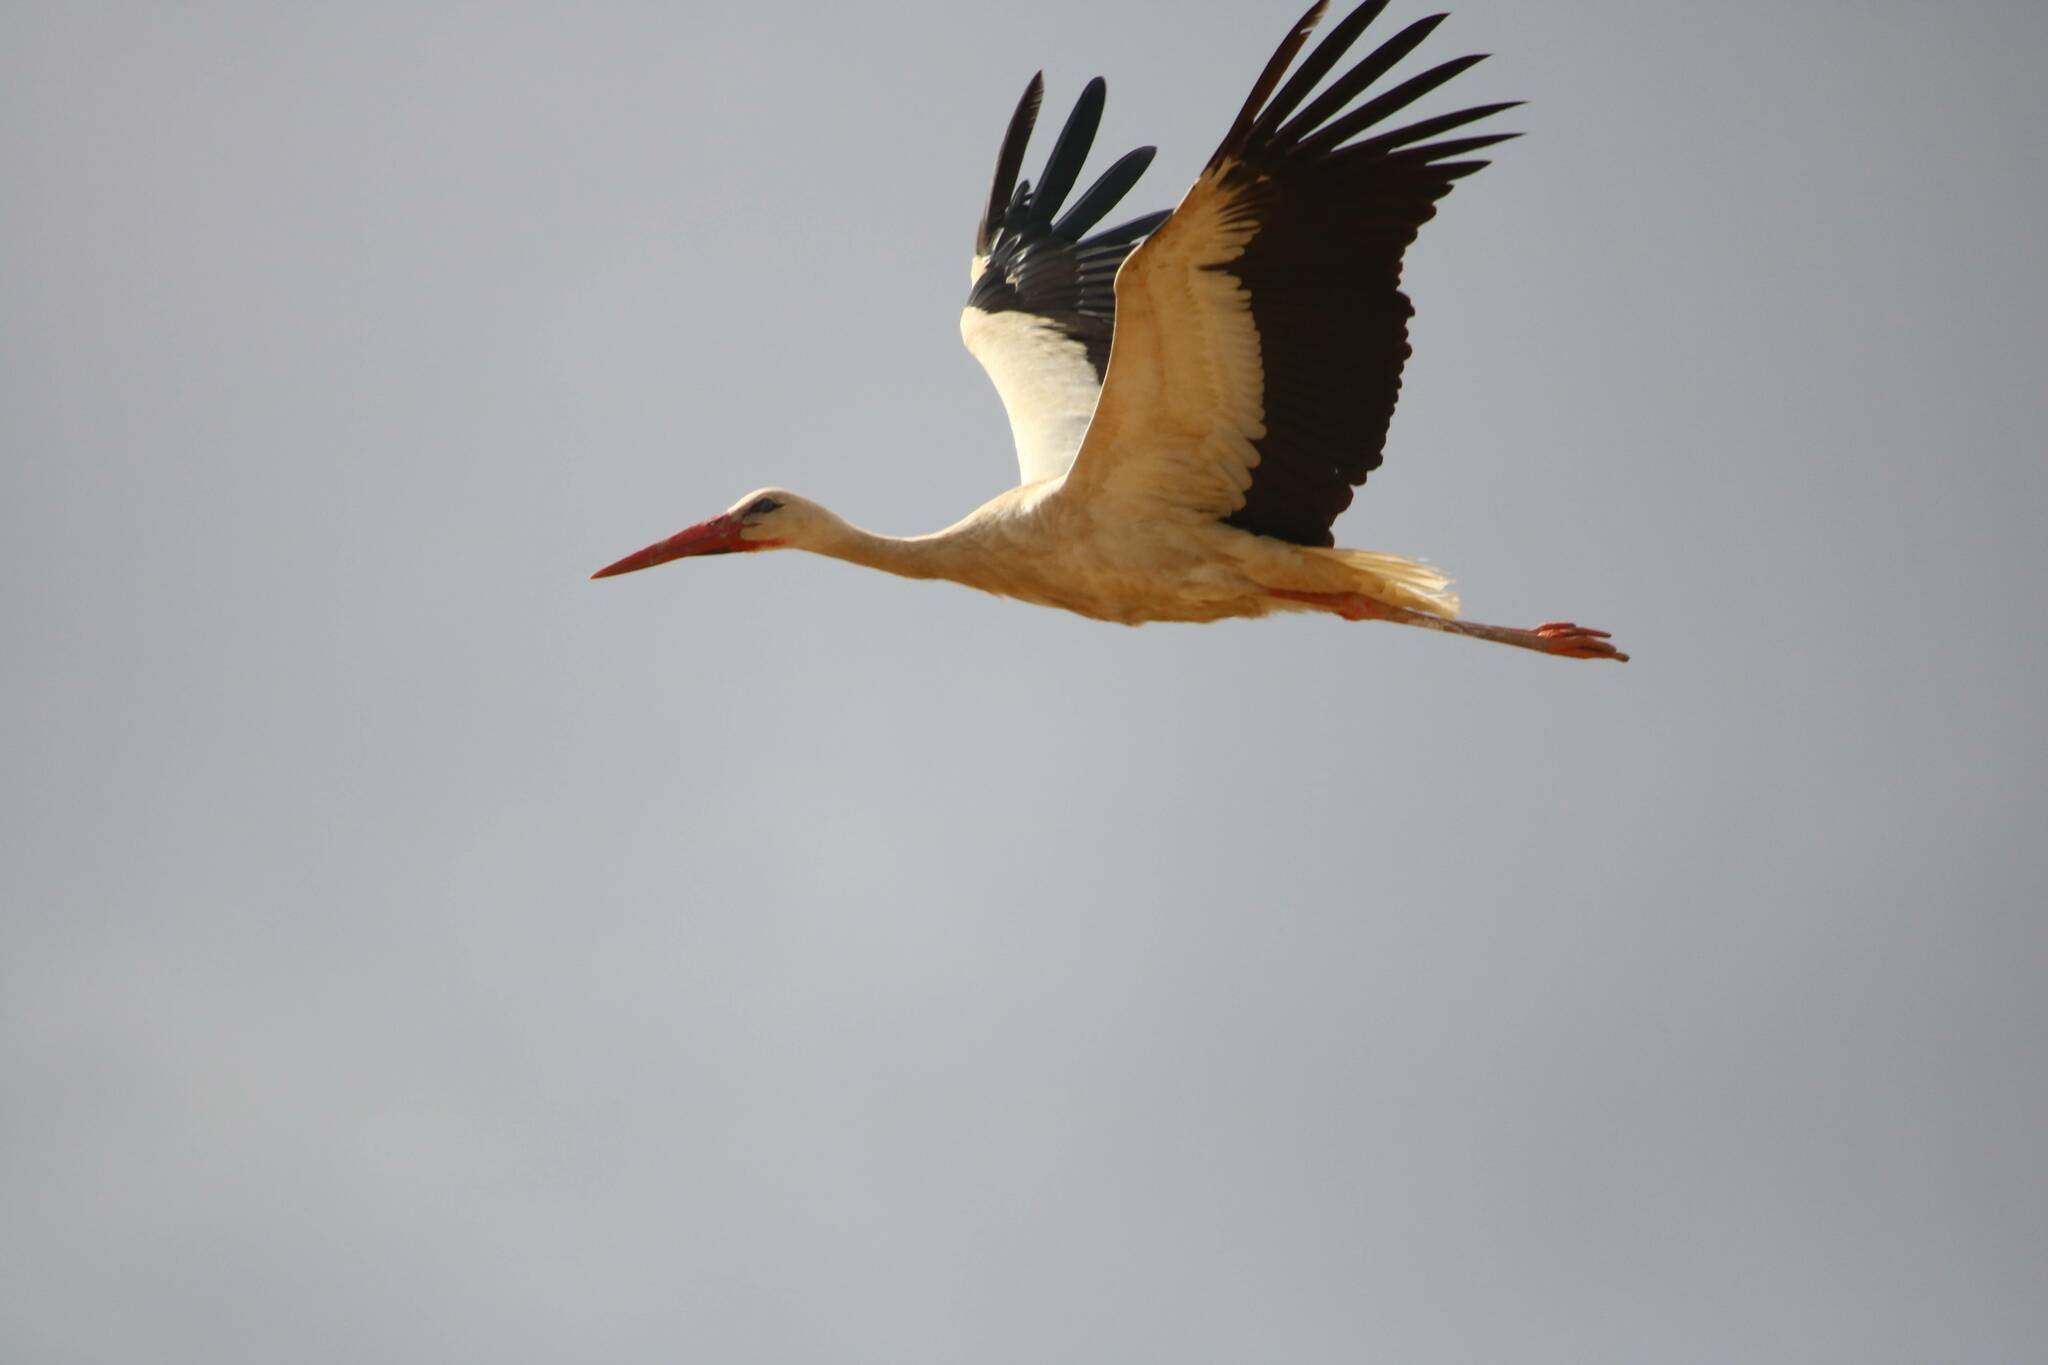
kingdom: Animalia
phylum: Chordata
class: Aves
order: Ciconiiformes
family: Ciconiidae
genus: Ciconia
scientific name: Ciconia ciconia
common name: White stork
